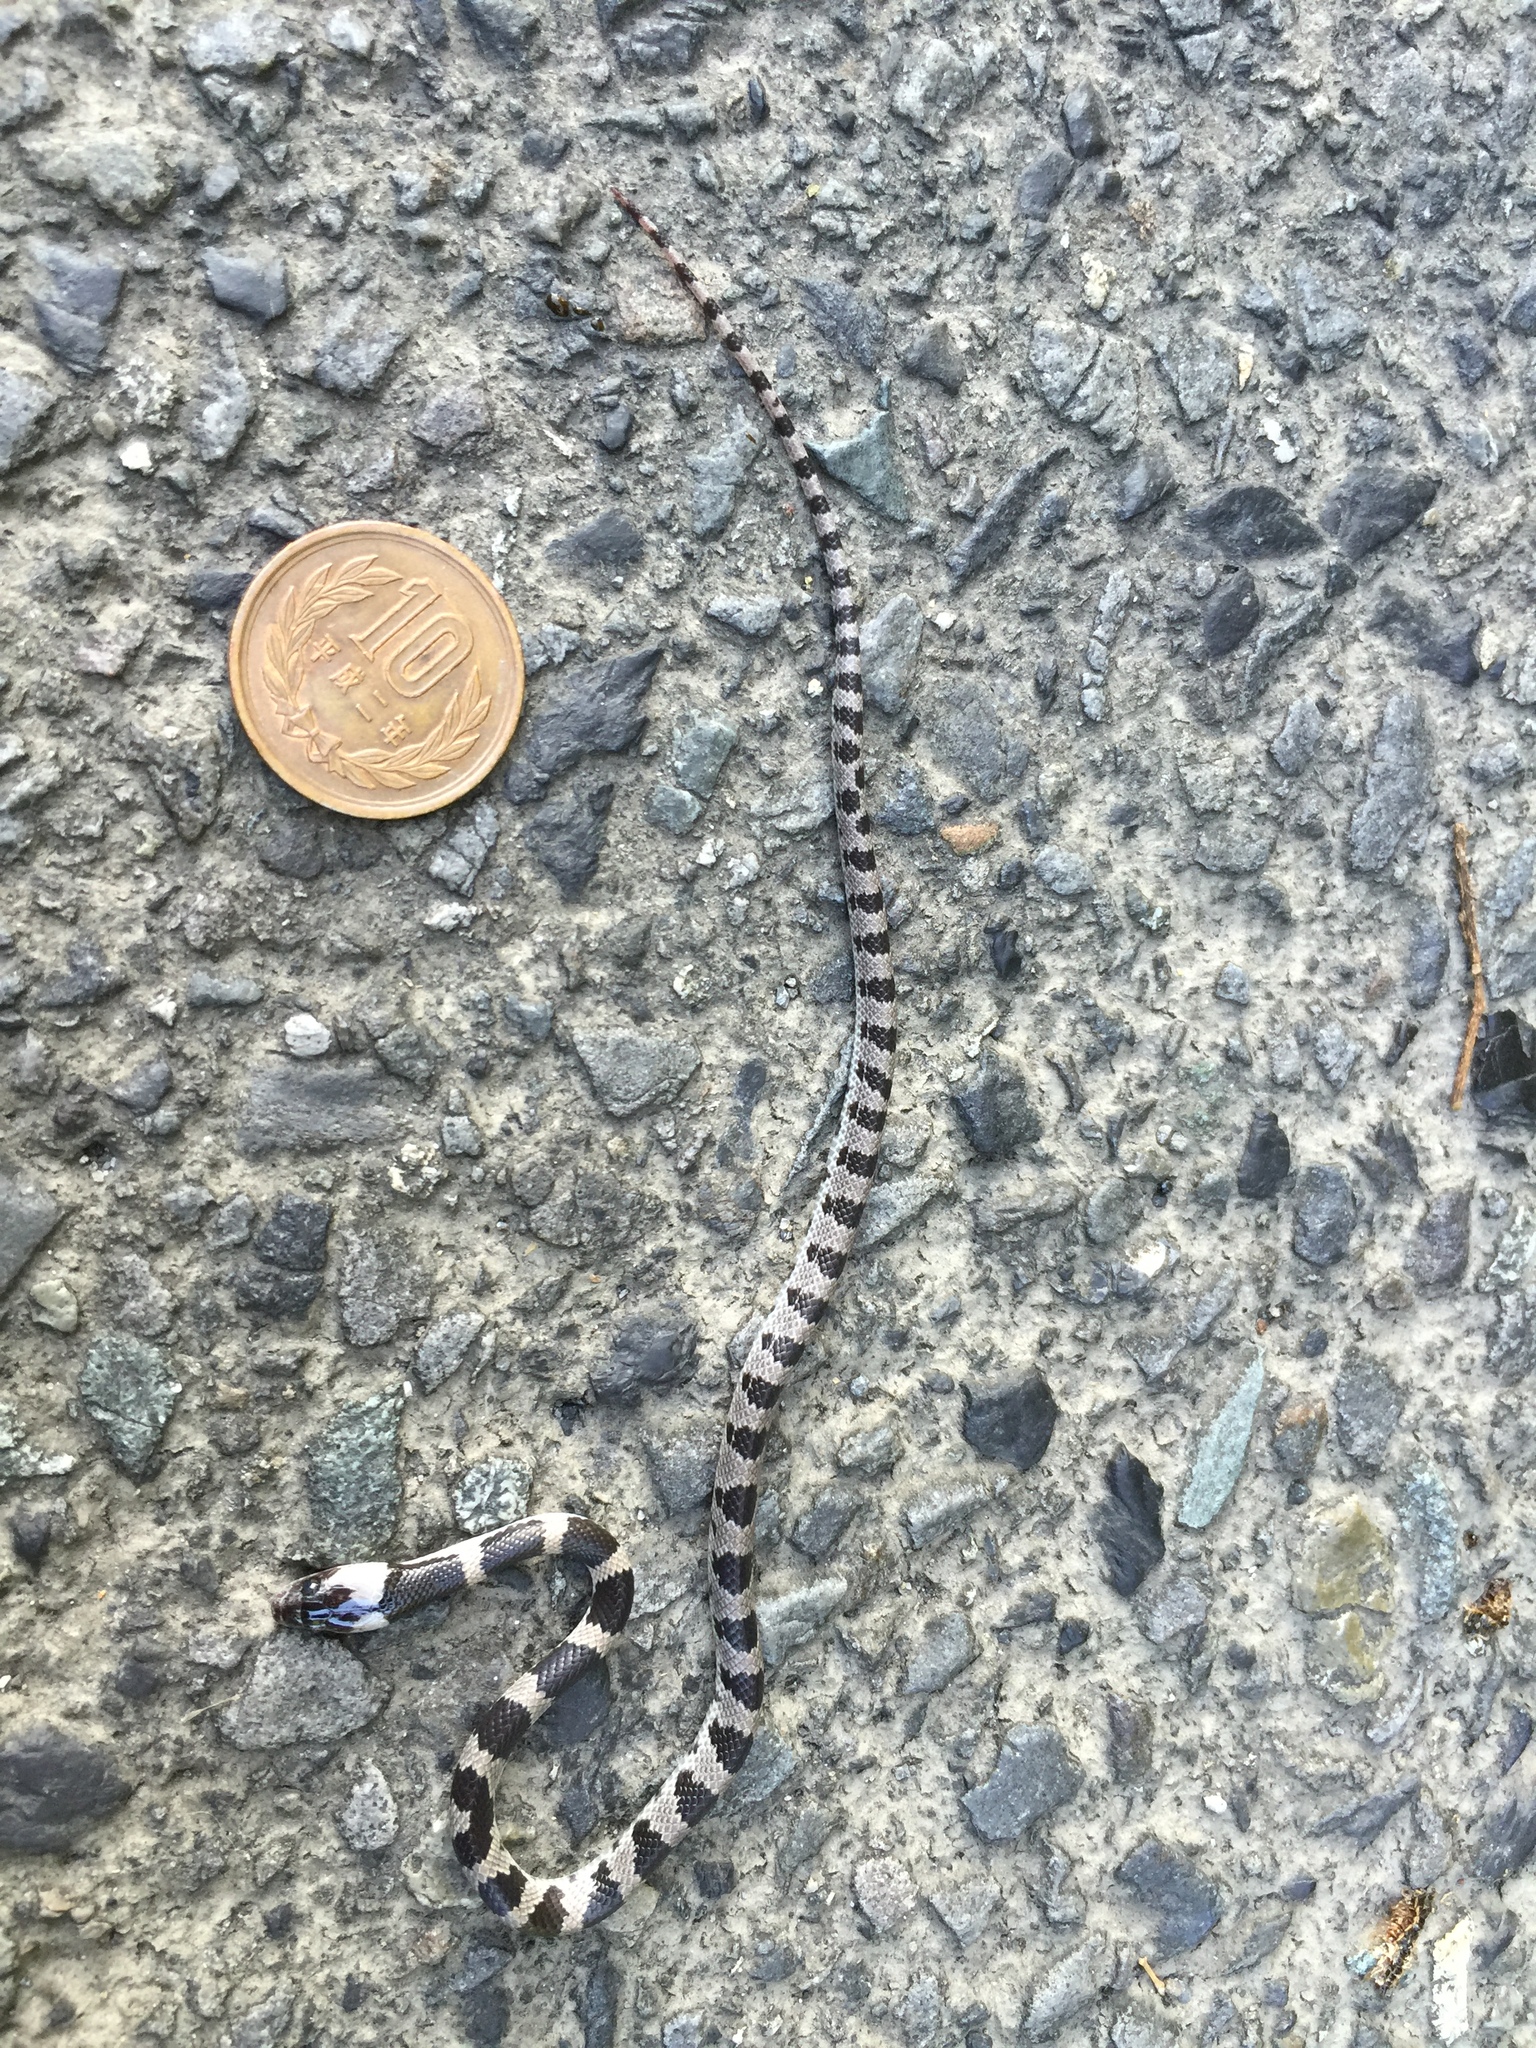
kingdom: Animalia
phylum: Chordata
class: Squamata
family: Colubridae
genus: Lycodon
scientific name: Lycodon orientalis
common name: Oriental odd-tooth snake
